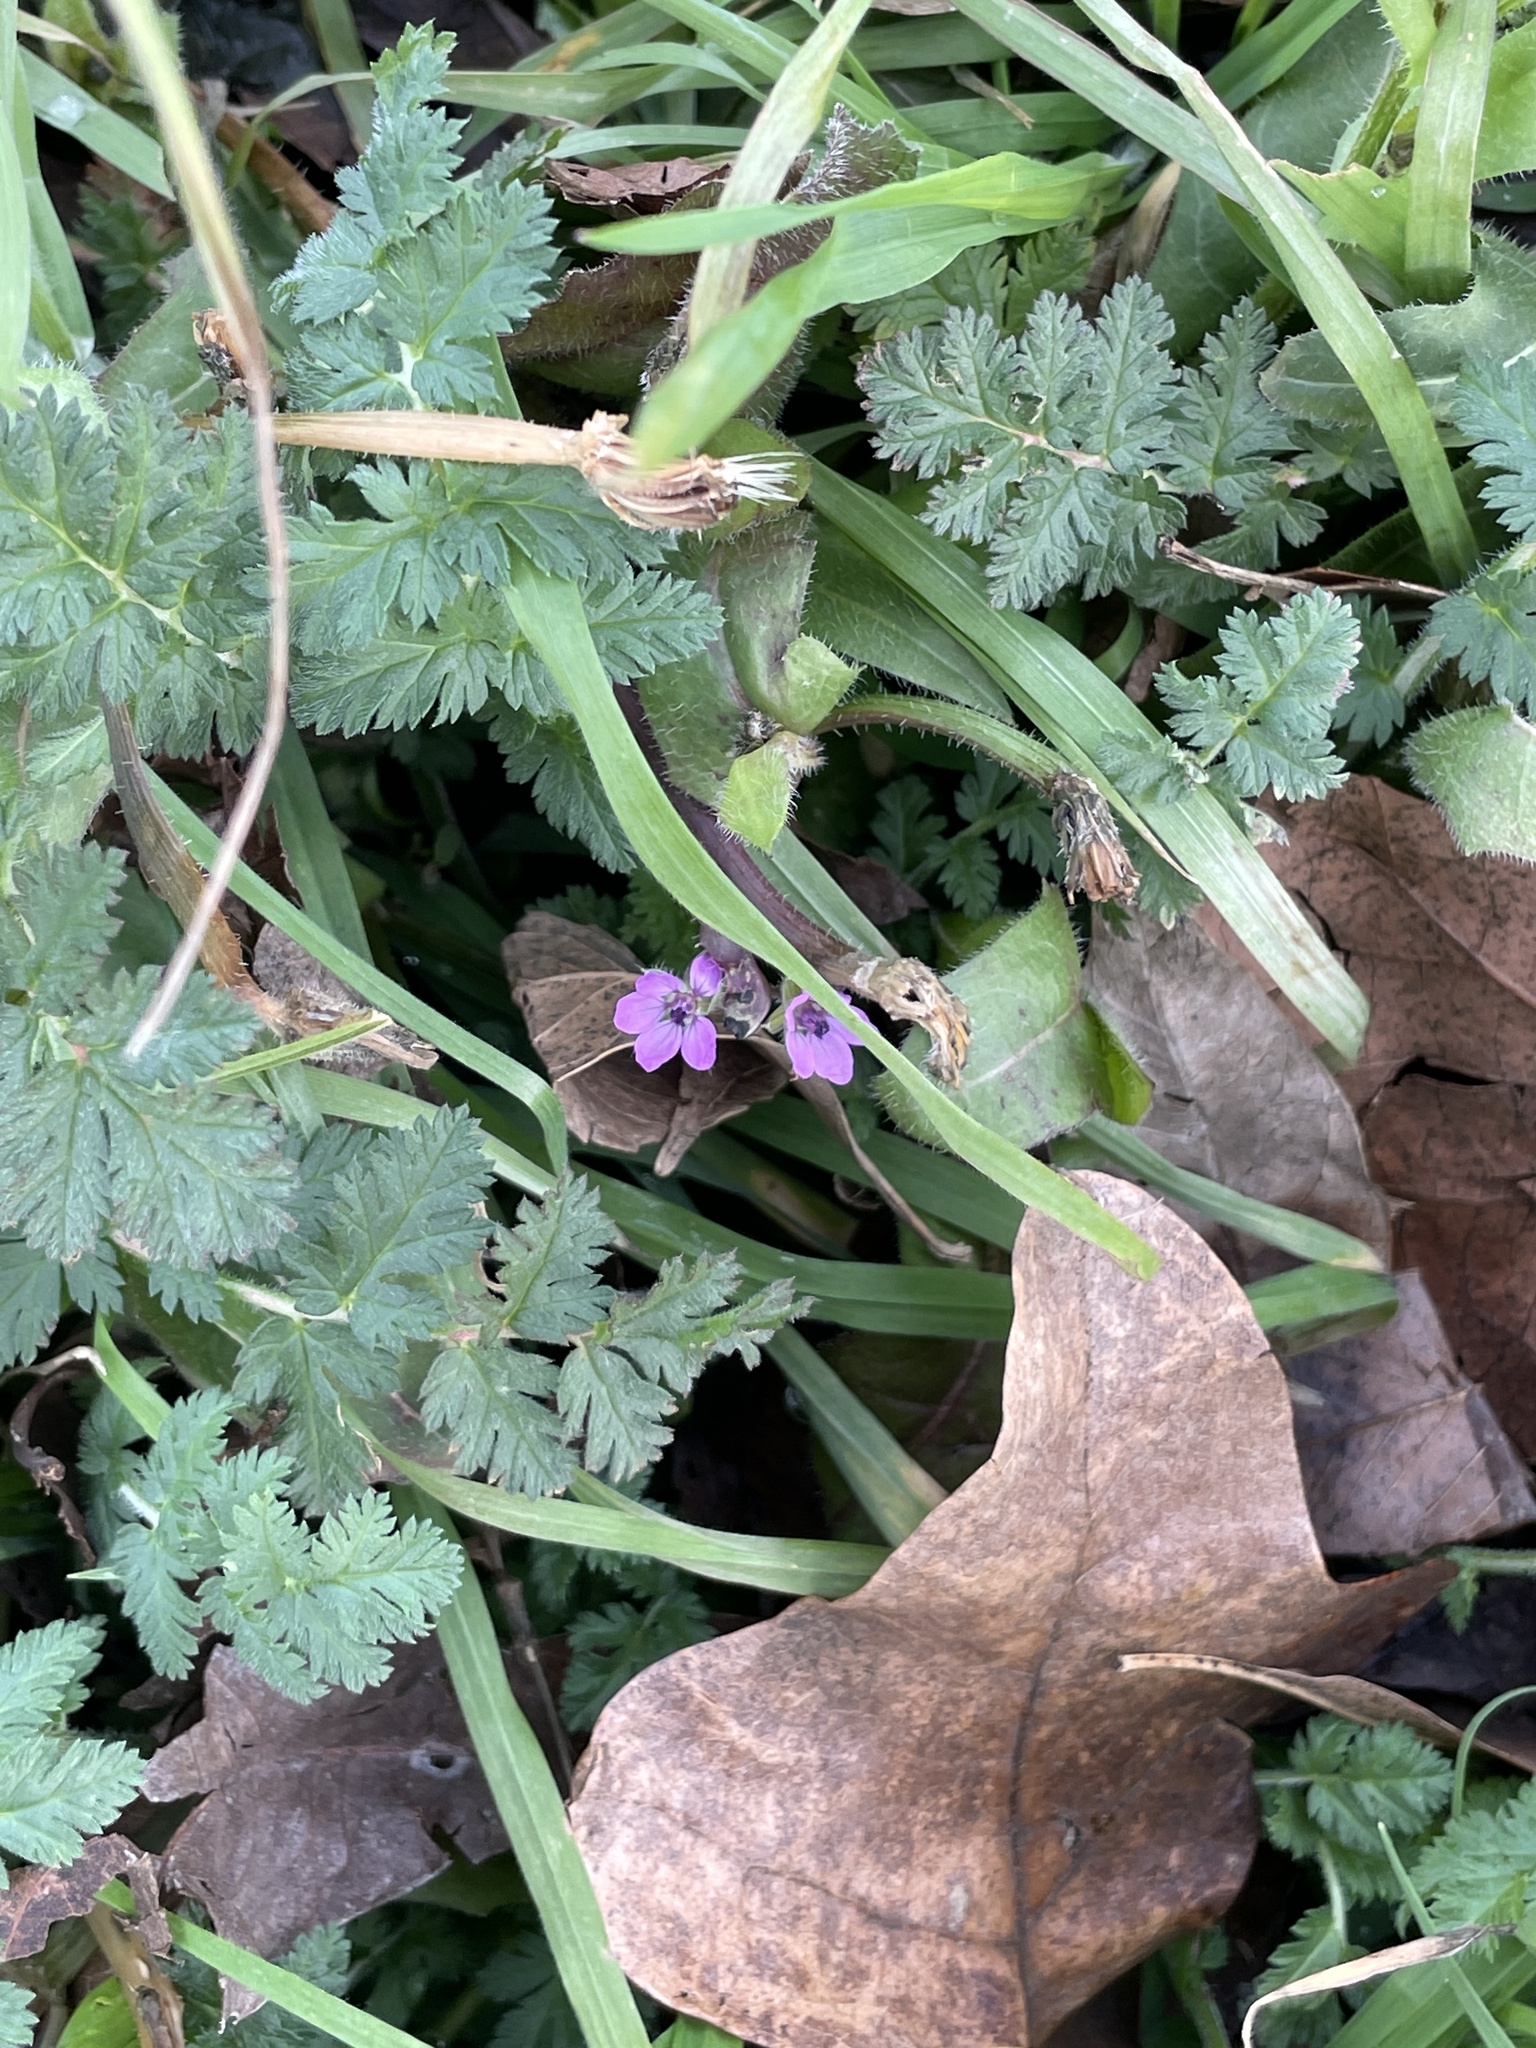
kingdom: Plantae
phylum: Tracheophyta
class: Magnoliopsida
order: Geraniales
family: Geraniaceae
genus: Erodium
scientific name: Erodium cicutarium
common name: Common stork's-bill
